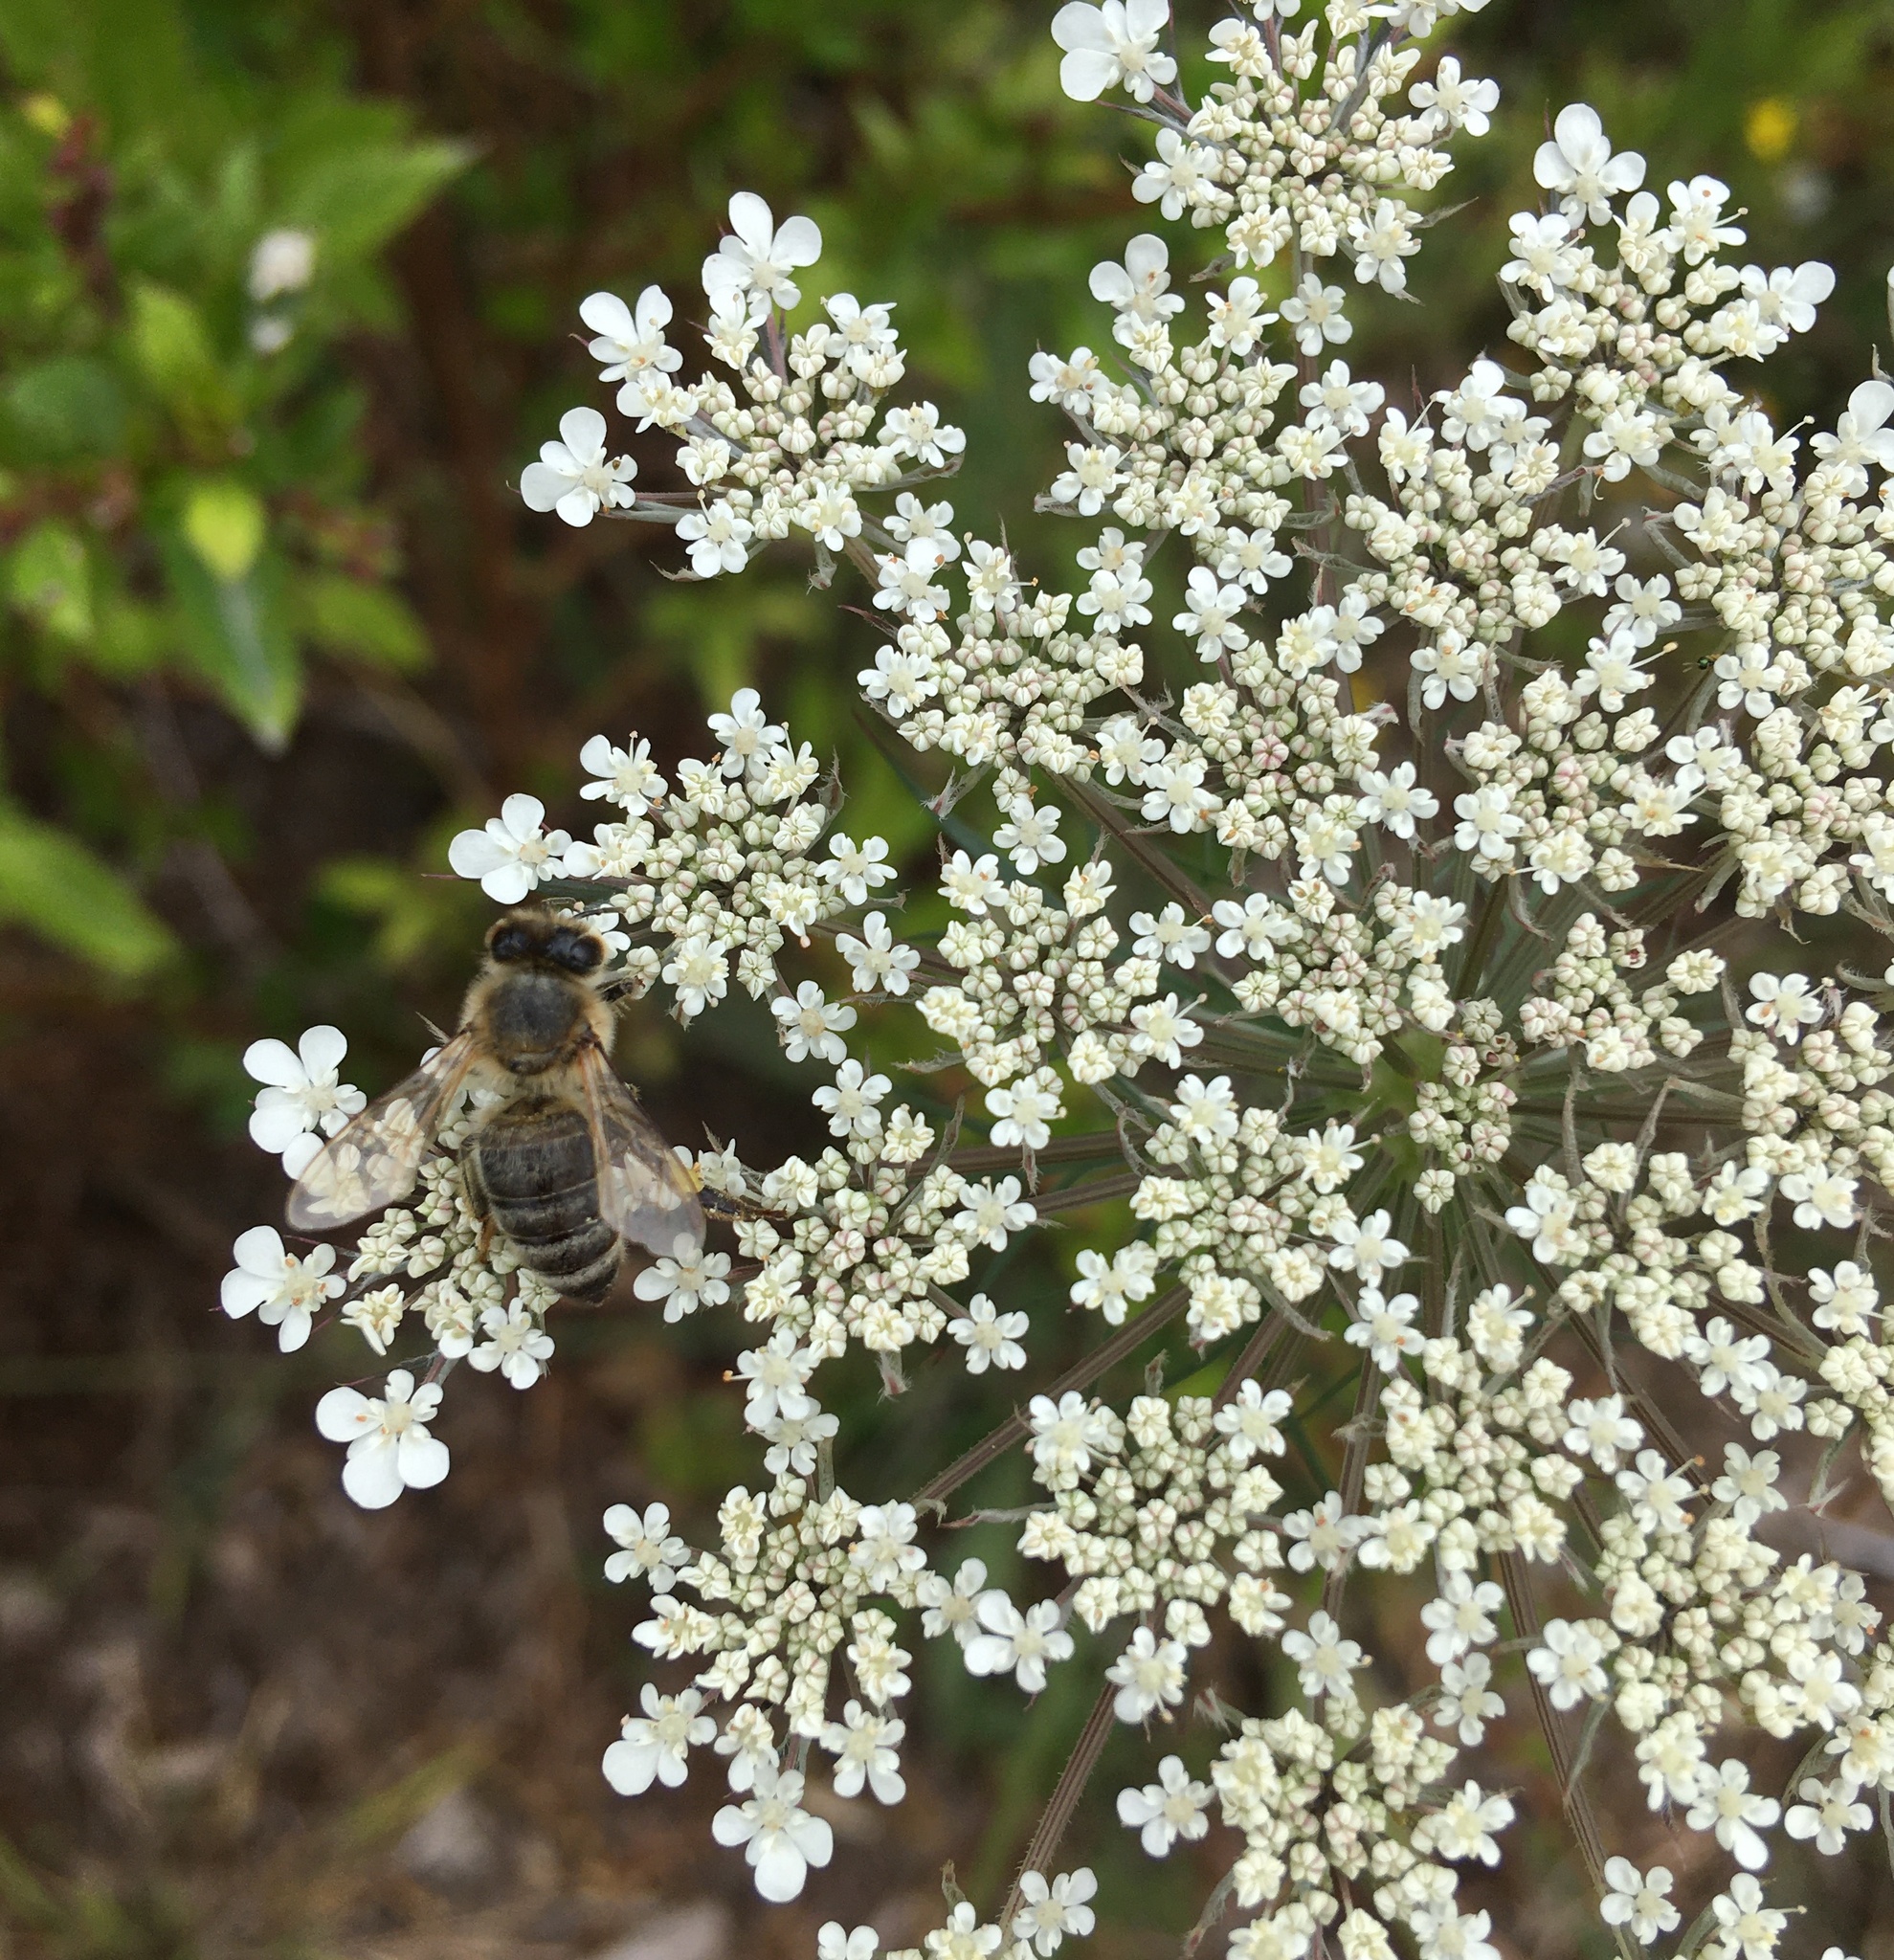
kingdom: Animalia
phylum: Arthropoda
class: Insecta
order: Hymenoptera
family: Apidae
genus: Apis
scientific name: Apis mellifera
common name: Honey bee
